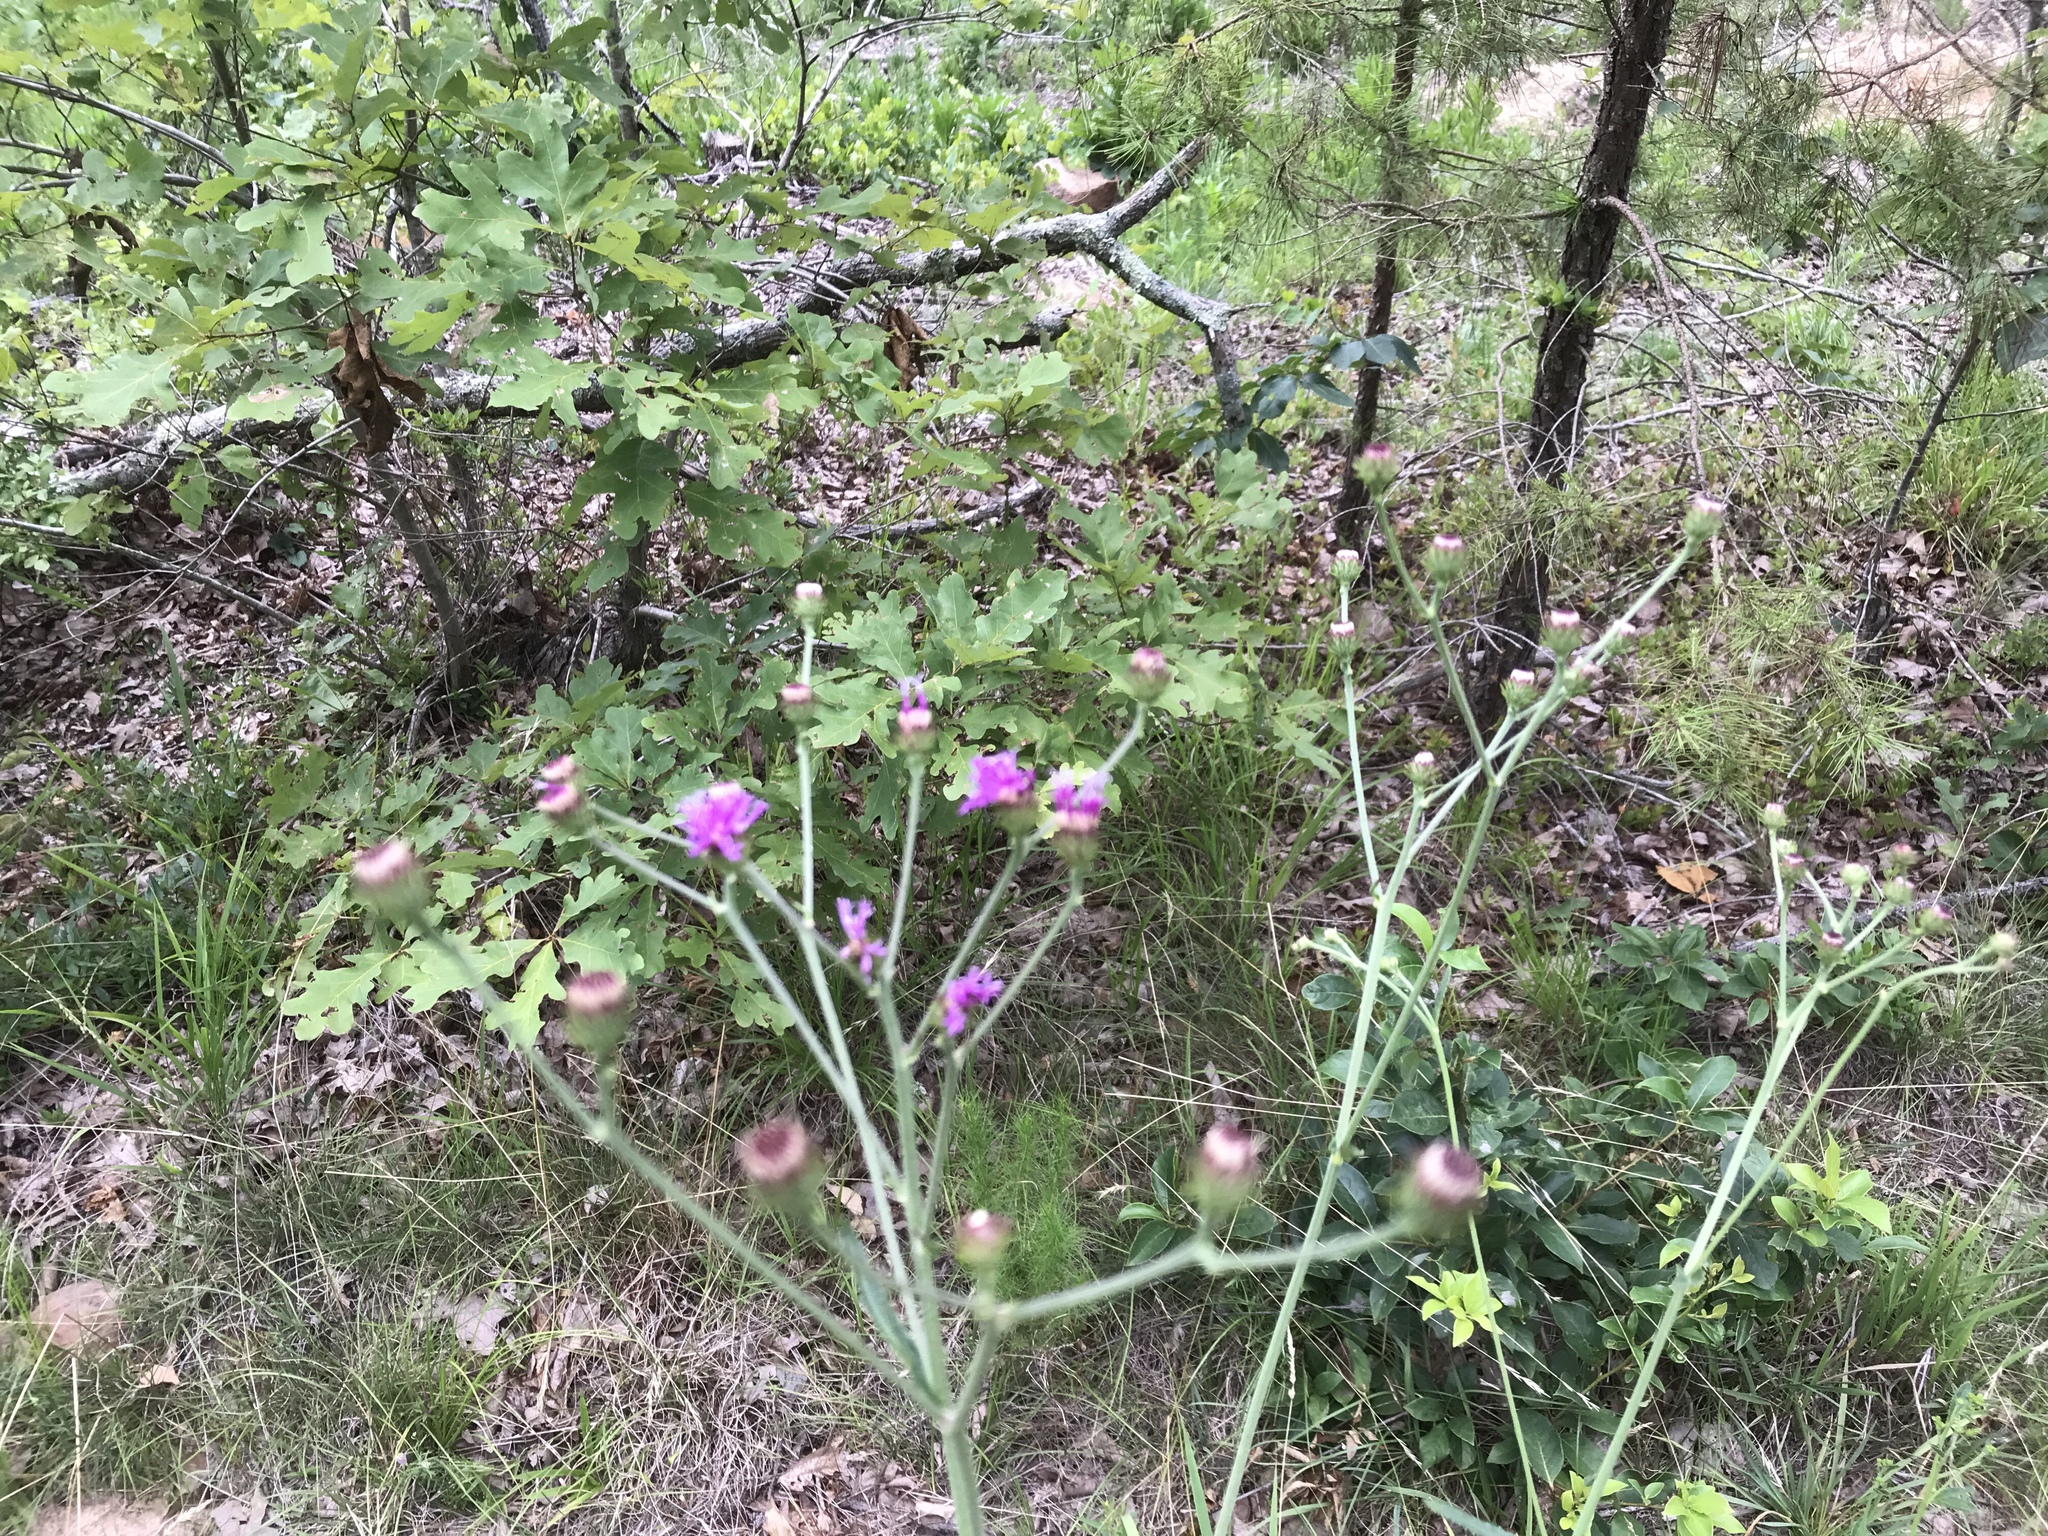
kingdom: Plantae
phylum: Tracheophyta
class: Magnoliopsida
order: Asterales
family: Asteraceae
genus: Vernonia
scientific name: Vernonia acaulis
